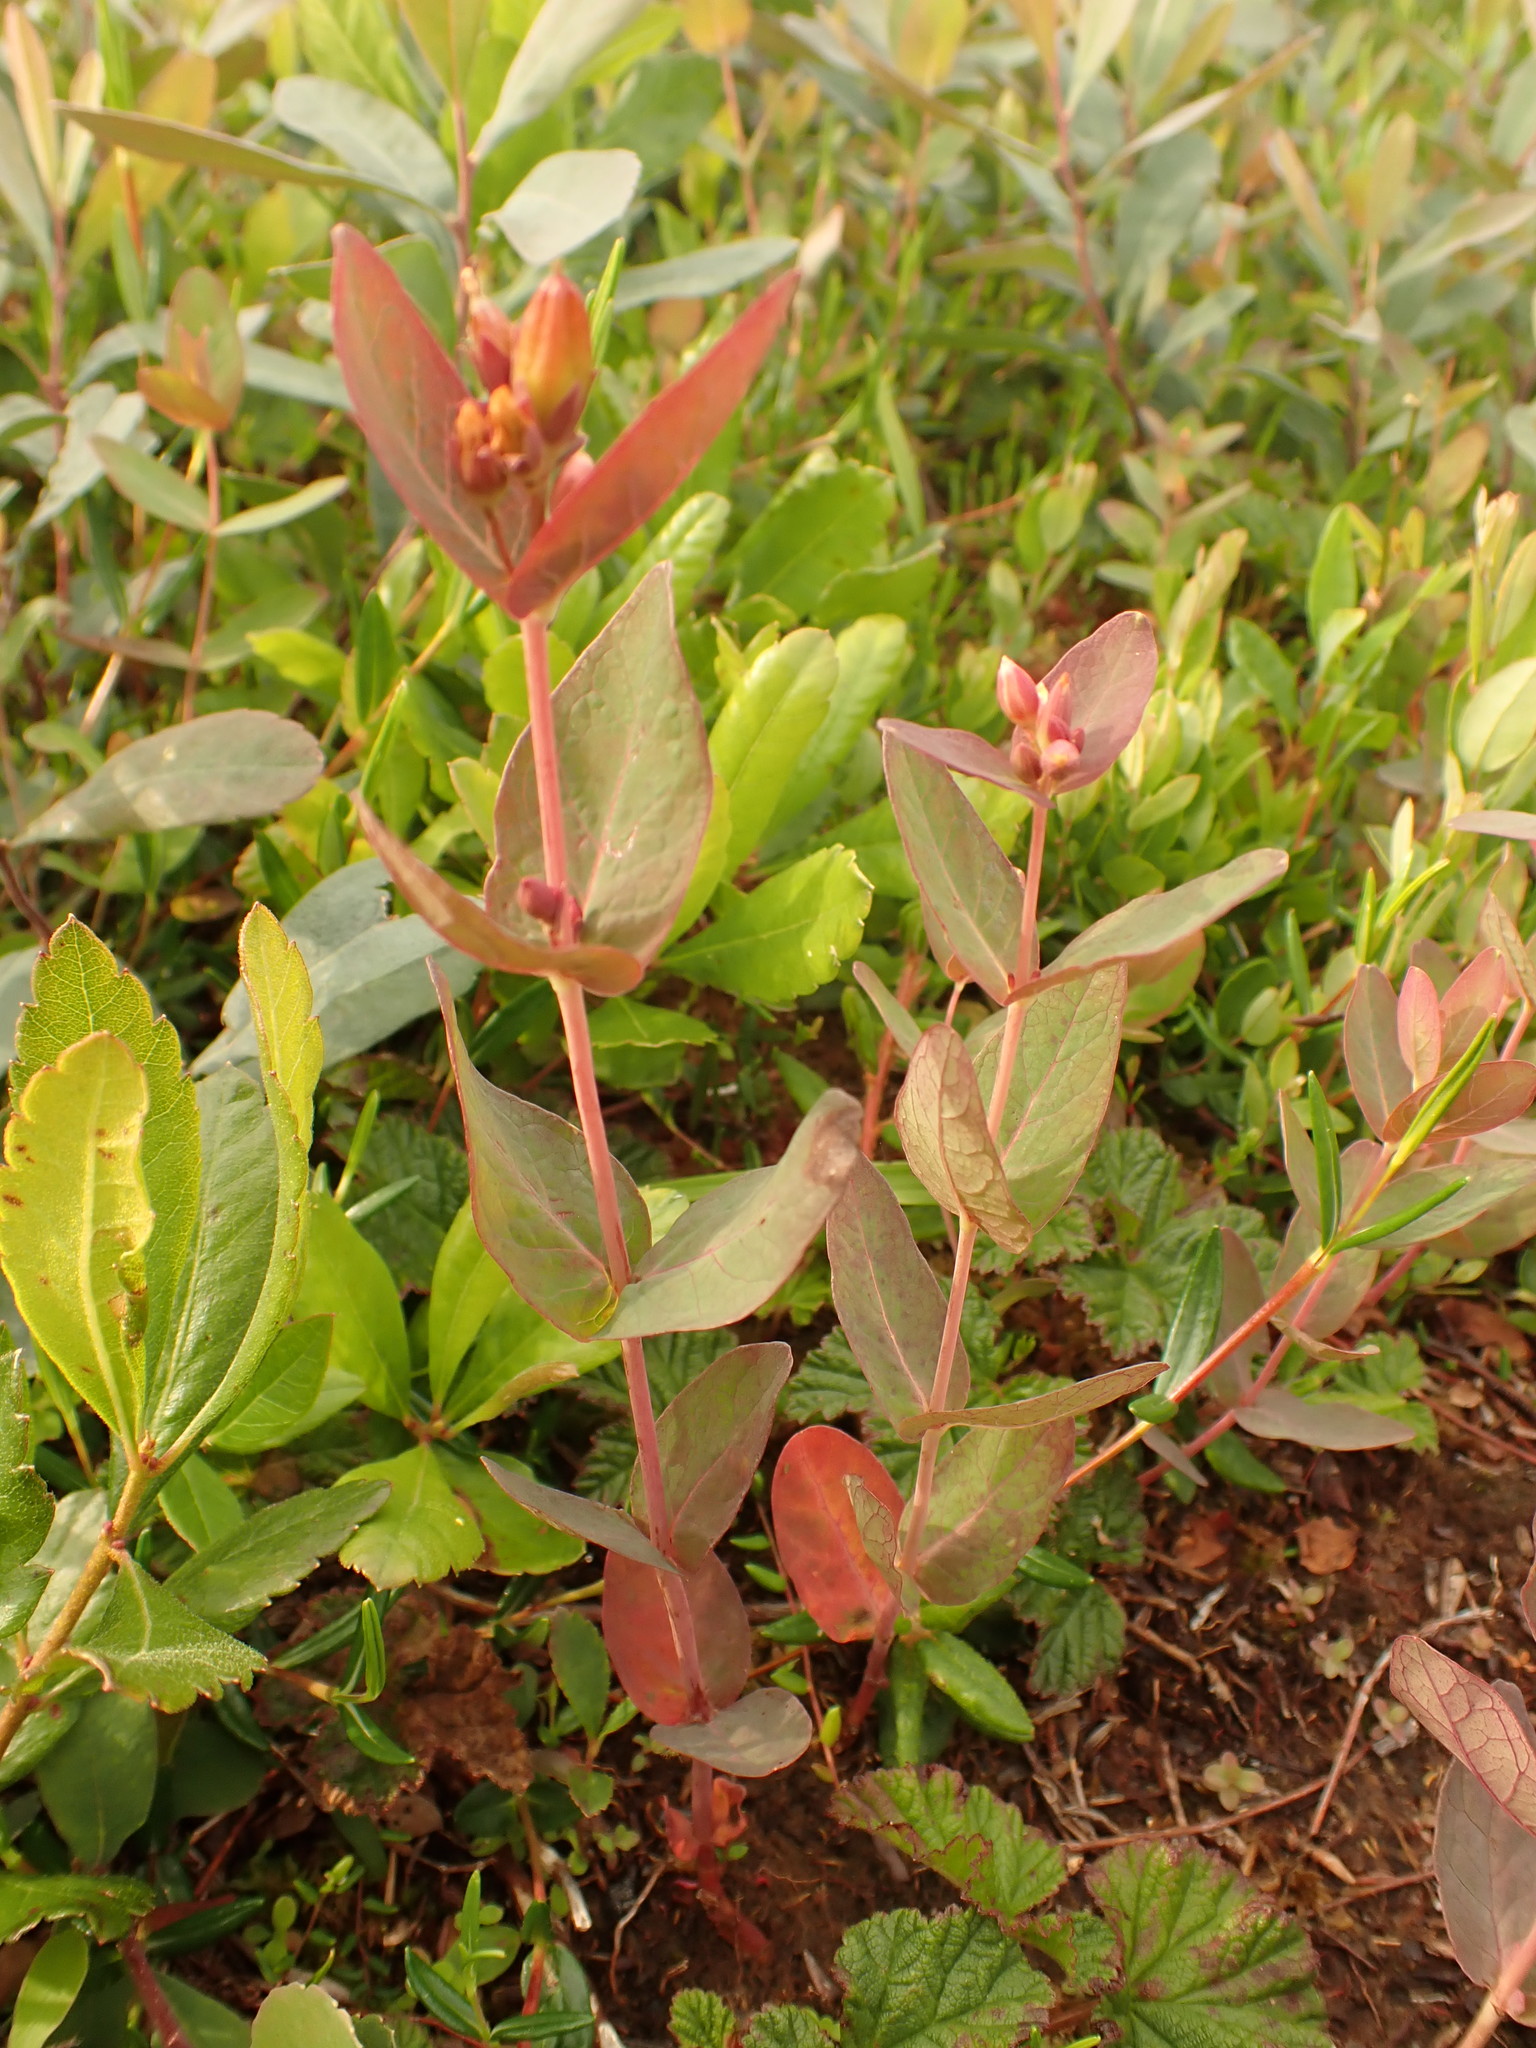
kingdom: Plantae
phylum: Tracheophyta
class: Magnoliopsida
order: Malpighiales
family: Hypericaceae
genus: Triadenum
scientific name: Triadenum fraseri
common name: Fraser's marsh st. johnswort
